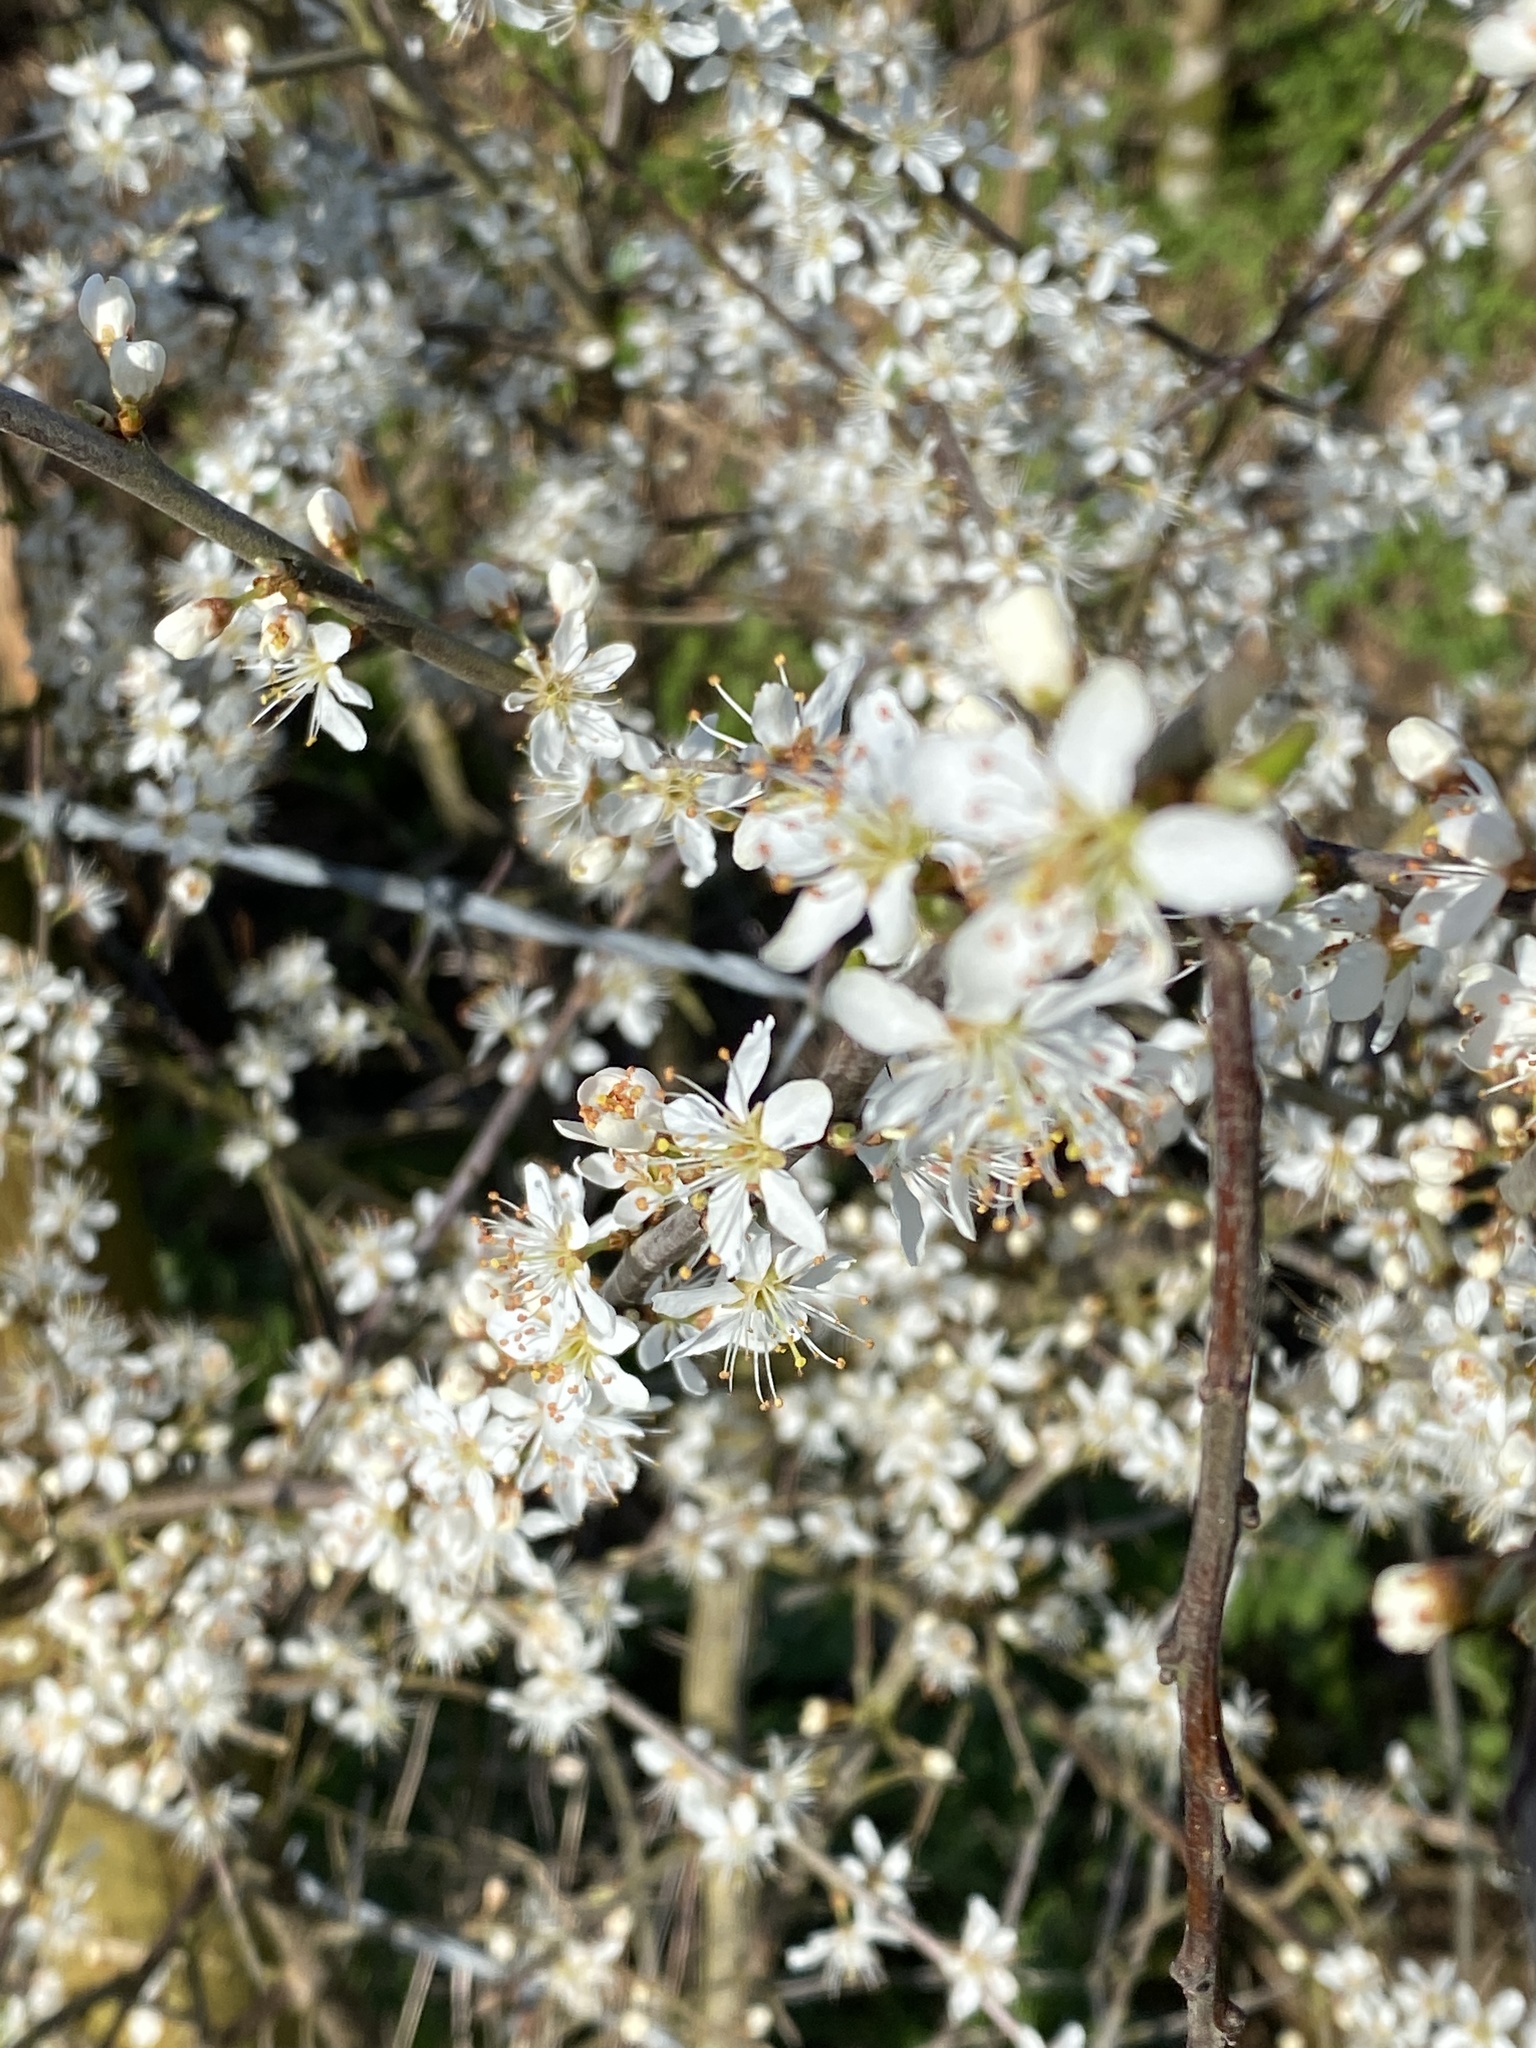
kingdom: Plantae
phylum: Tracheophyta
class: Magnoliopsida
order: Rosales
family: Rosaceae
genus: Prunus
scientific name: Prunus spinosa
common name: Blackthorn
